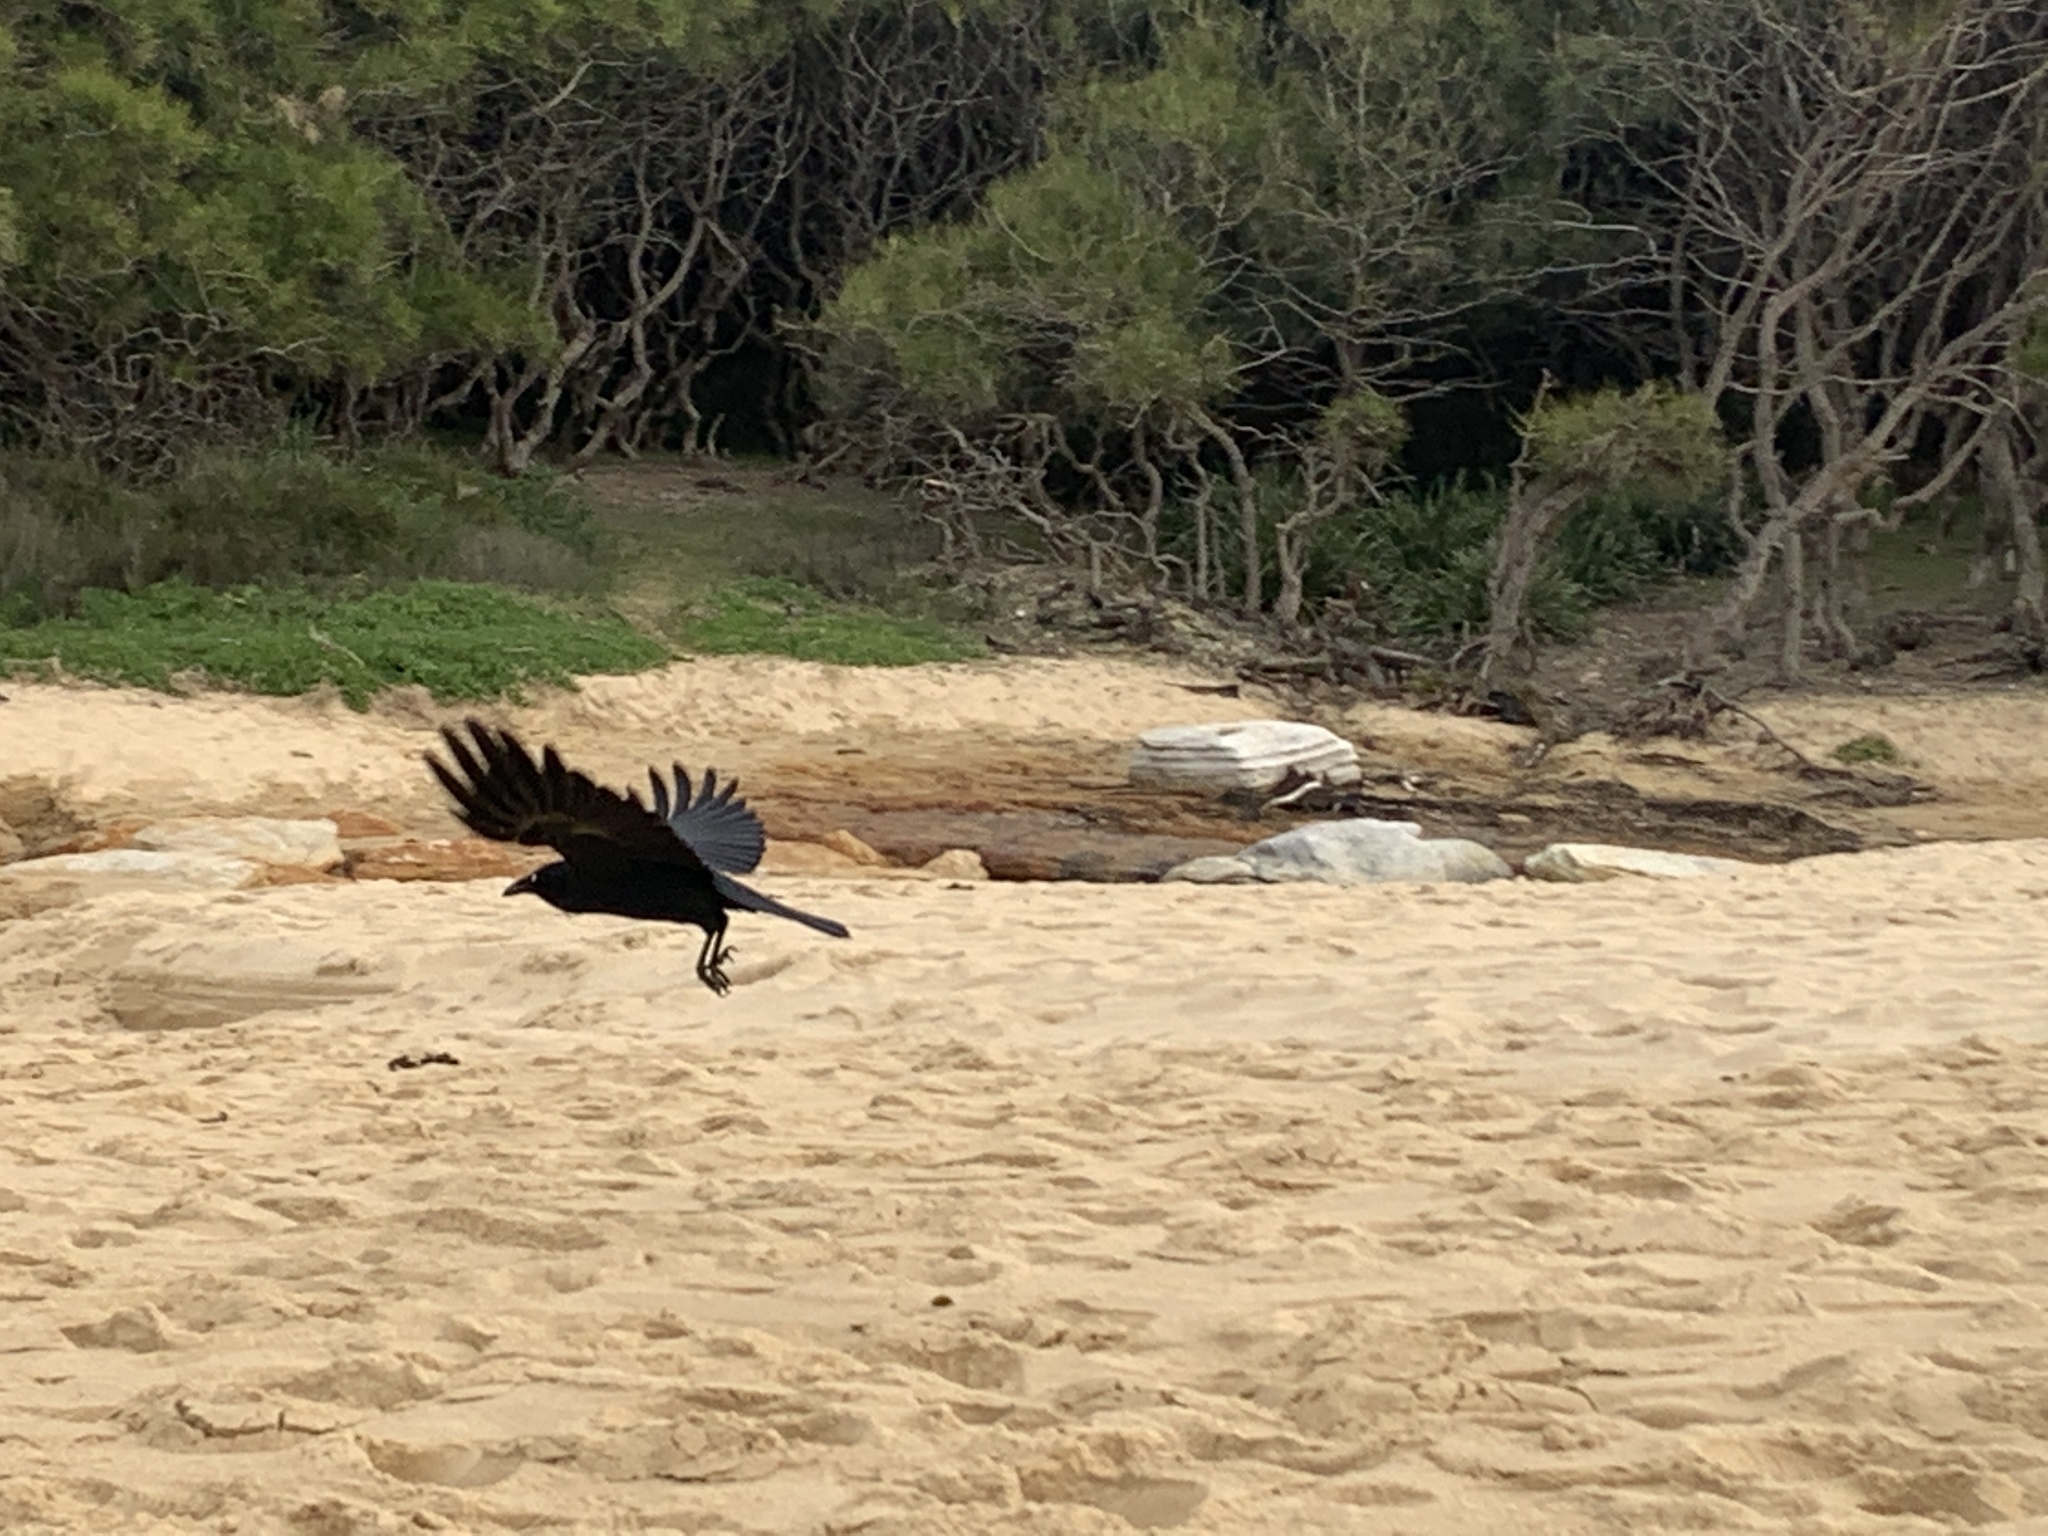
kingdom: Animalia
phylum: Chordata
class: Aves
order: Passeriformes
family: Corvidae
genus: Corvus
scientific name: Corvus coronoides
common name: Australian raven
